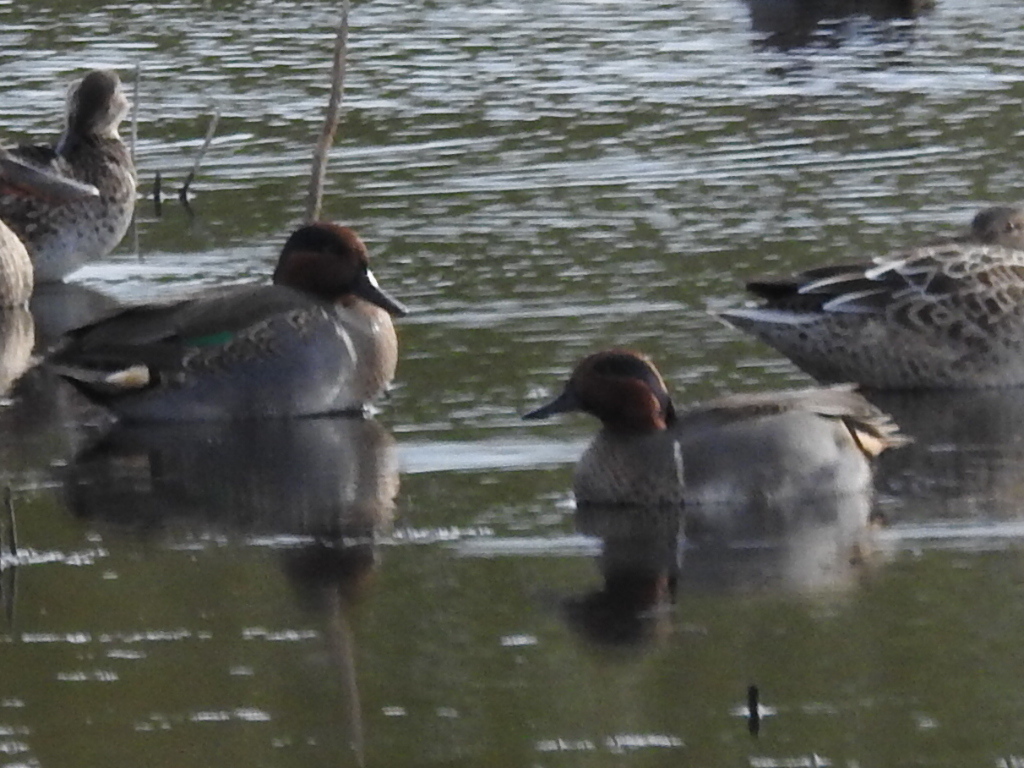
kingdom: Animalia
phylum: Chordata
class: Aves
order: Anseriformes
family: Anatidae
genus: Anas
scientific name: Anas crecca
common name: Eurasian teal
